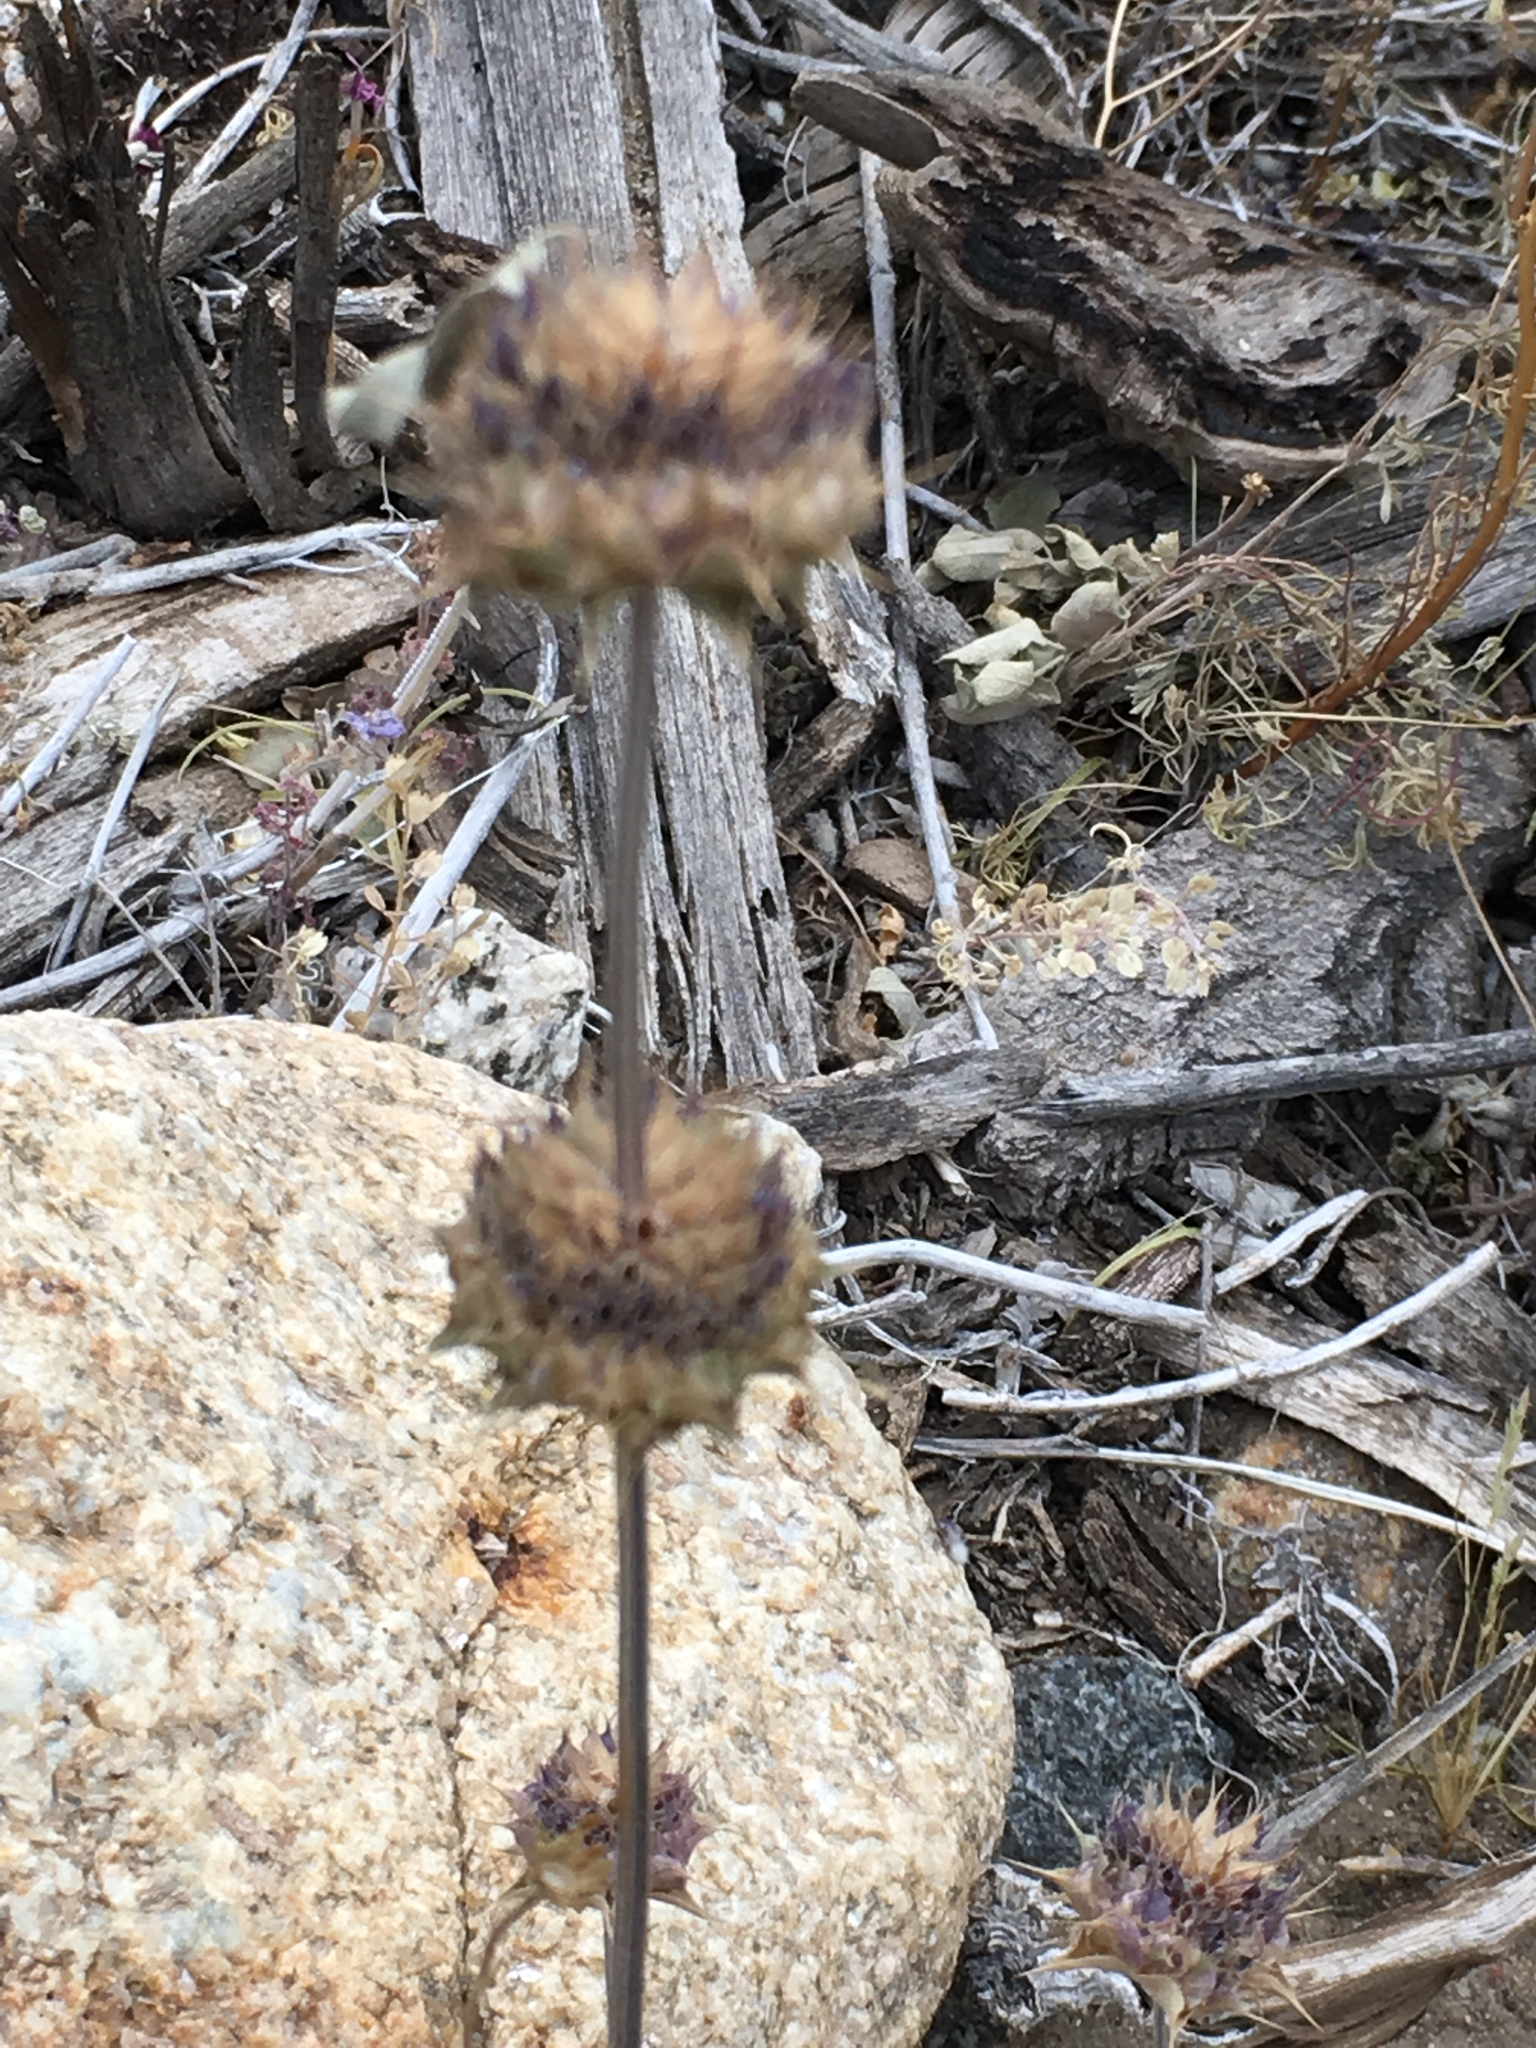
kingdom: Plantae
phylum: Tracheophyta
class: Magnoliopsida
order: Lamiales
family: Lamiaceae
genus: Salvia
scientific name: Salvia columbariae
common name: Chia
